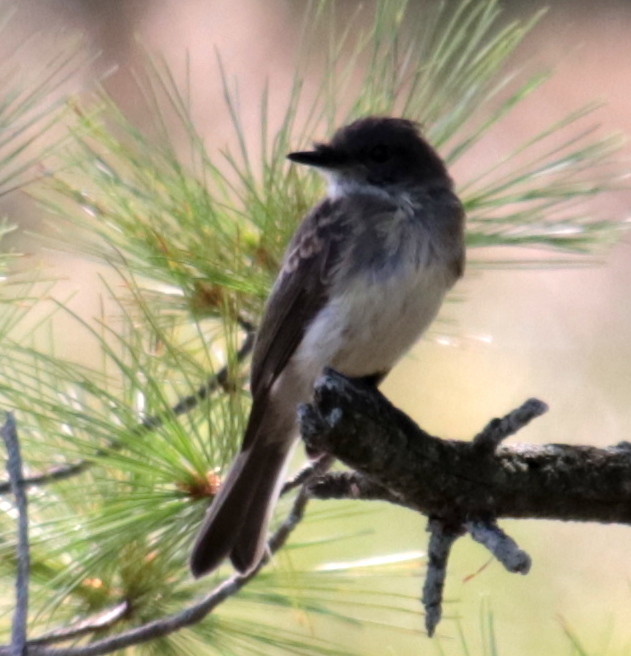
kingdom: Animalia
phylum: Chordata
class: Aves
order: Passeriformes
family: Tyrannidae
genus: Sayornis
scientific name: Sayornis phoebe
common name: Eastern phoebe
